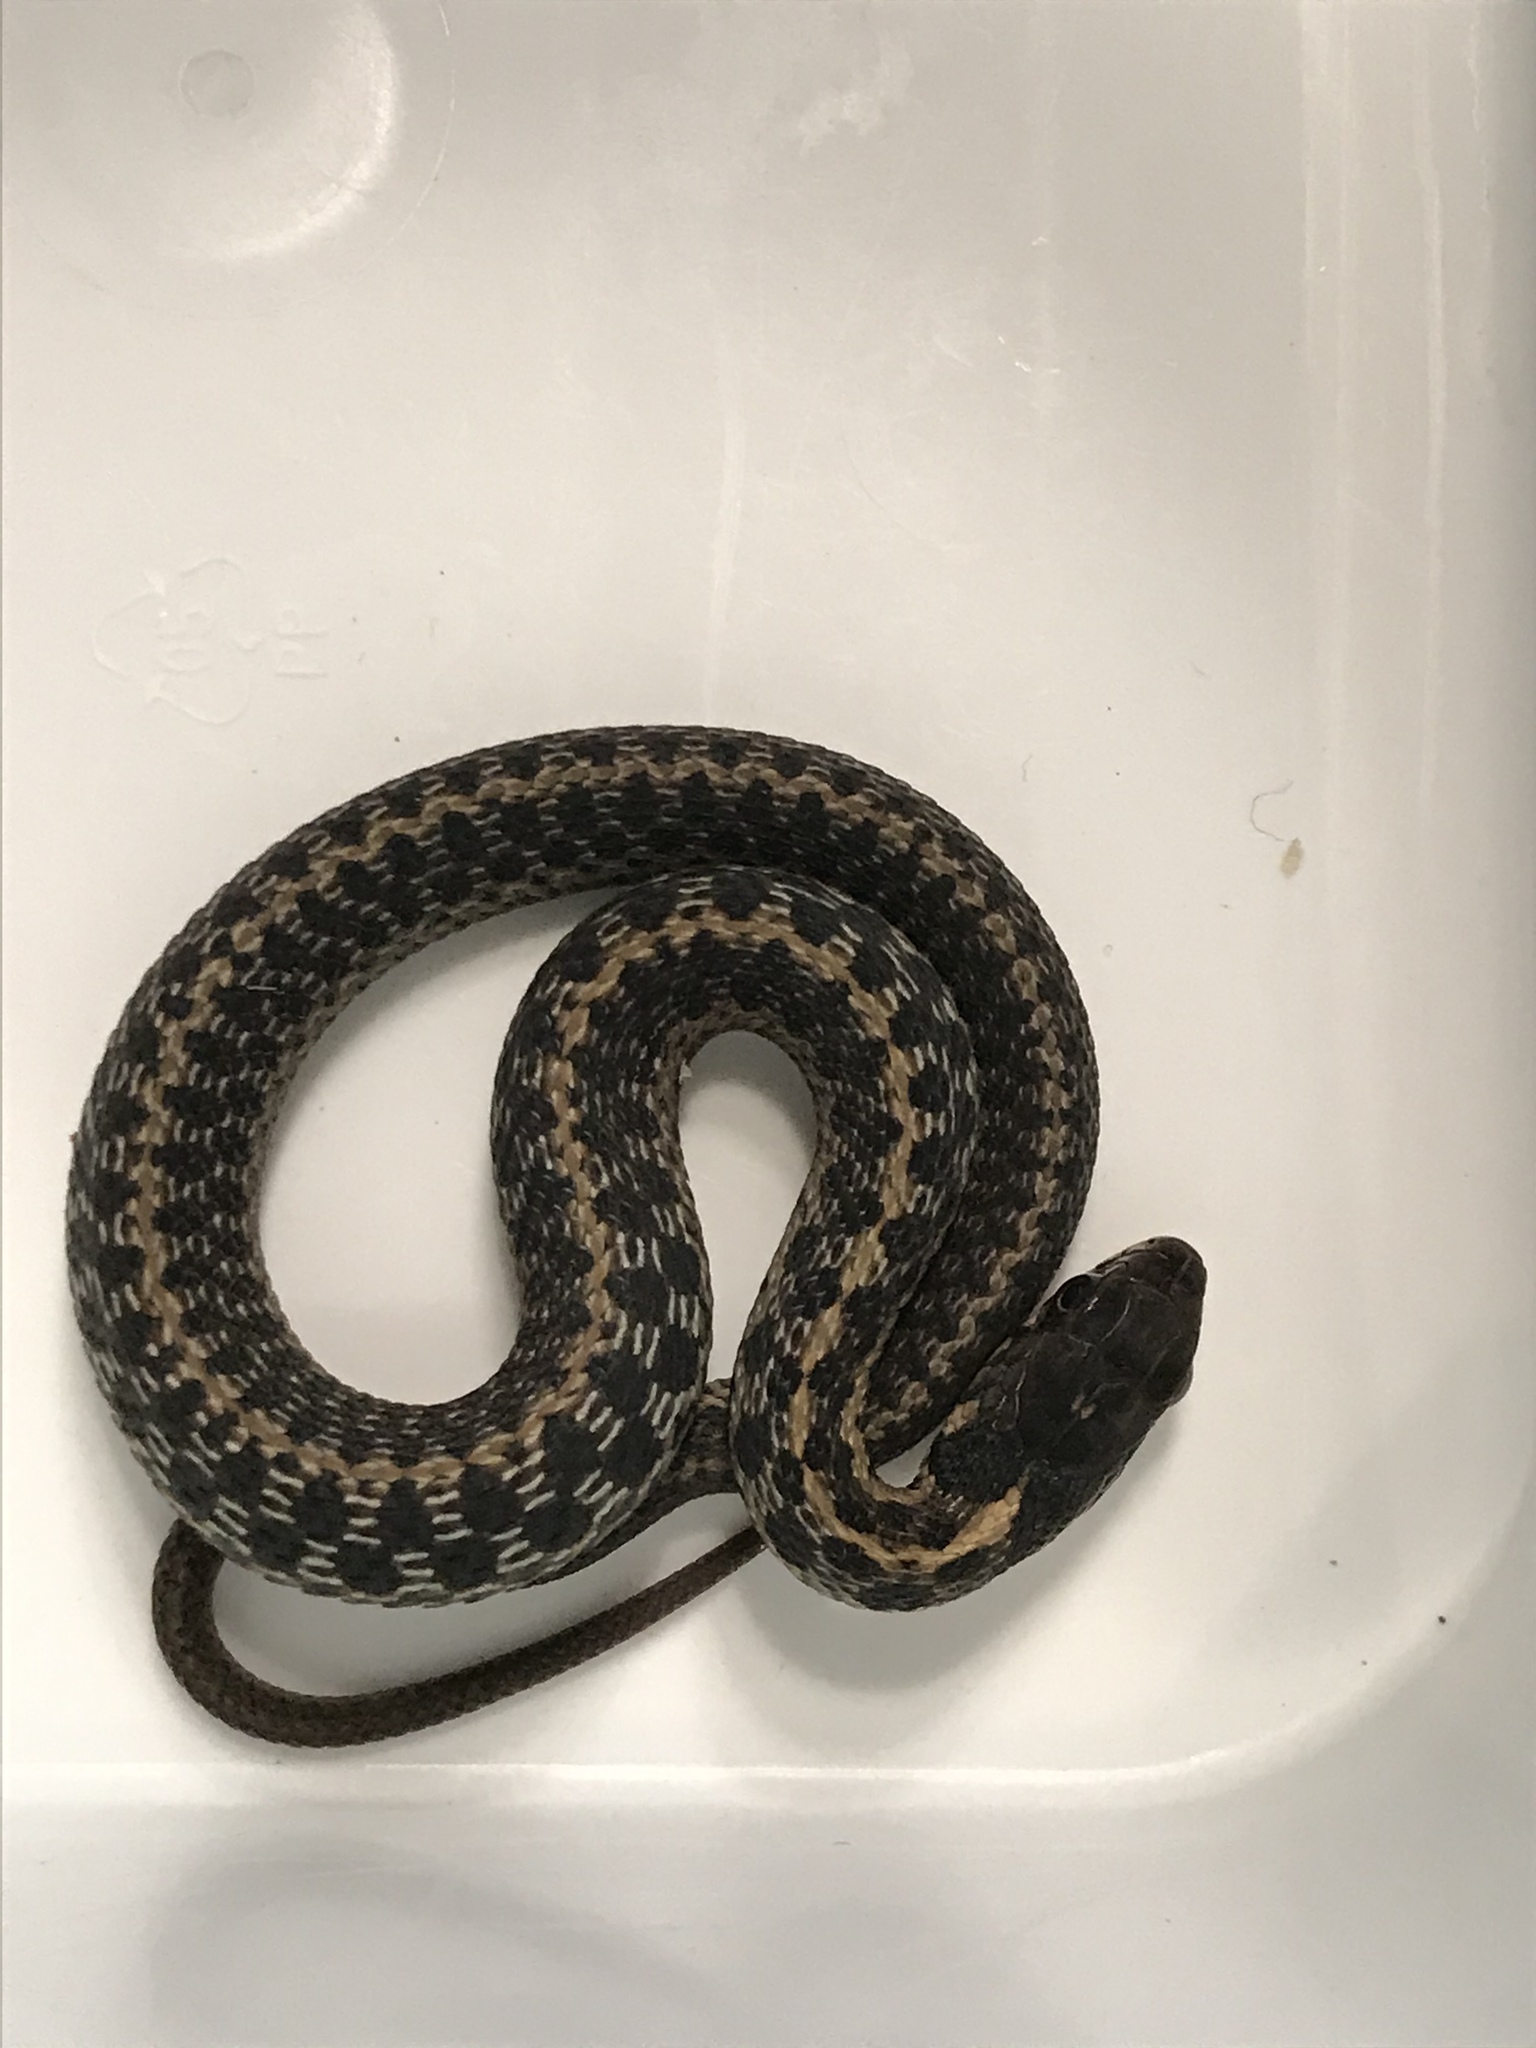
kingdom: Animalia
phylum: Chordata
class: Squamata
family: Colubridae
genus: Thamnophis
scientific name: Thamnophis sirtalis
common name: Common garter snake
